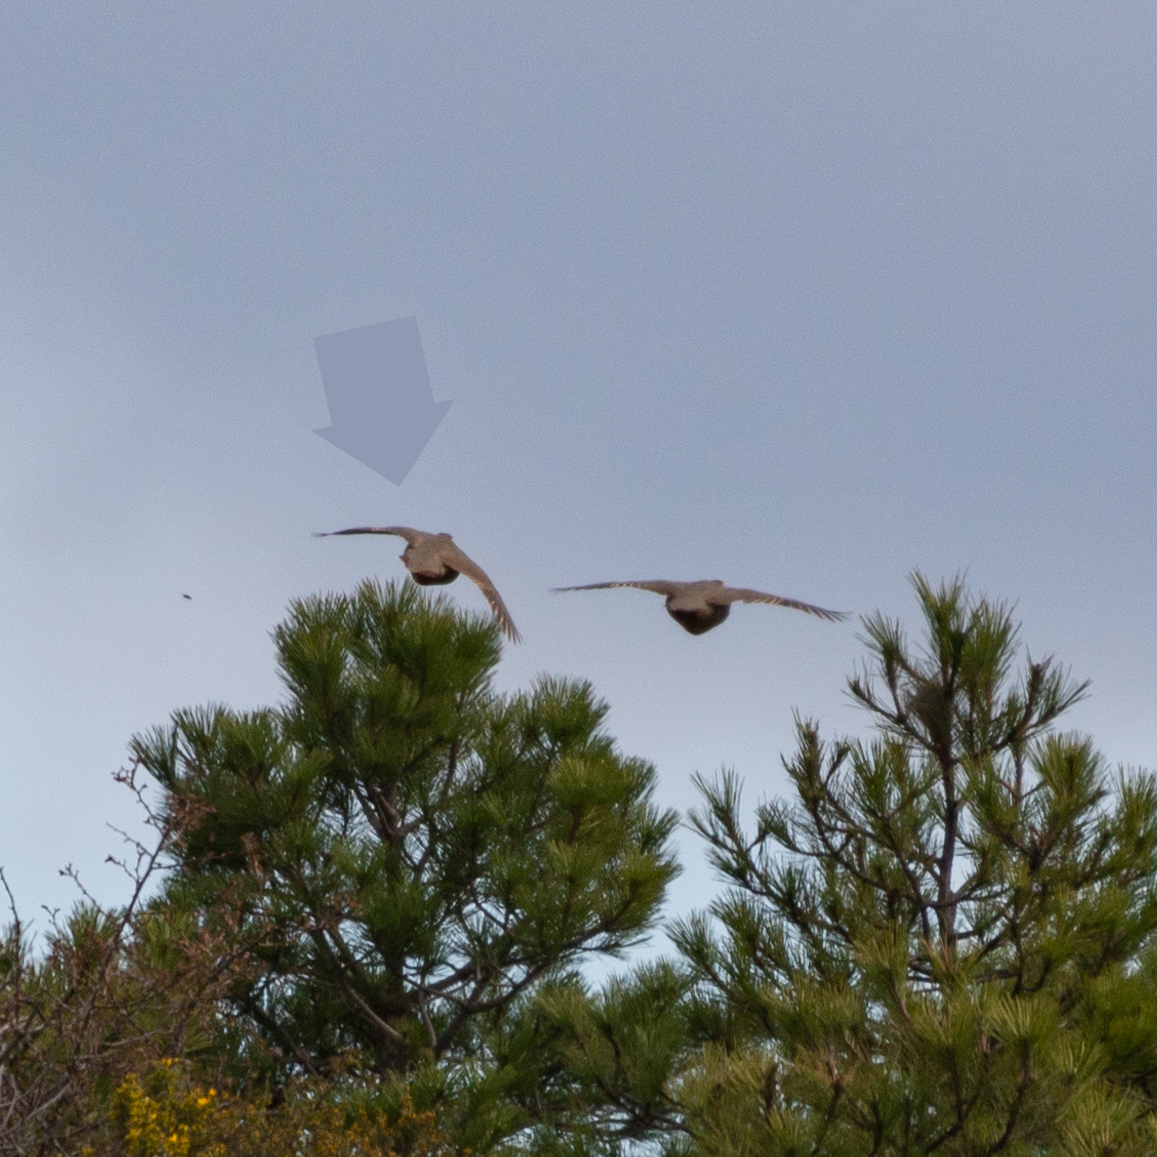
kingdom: Animalia
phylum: Chordata
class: Aves
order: Galliformes
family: Phasianidae
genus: Alectoris
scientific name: Alectoris rufa
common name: Red-legged partridge
